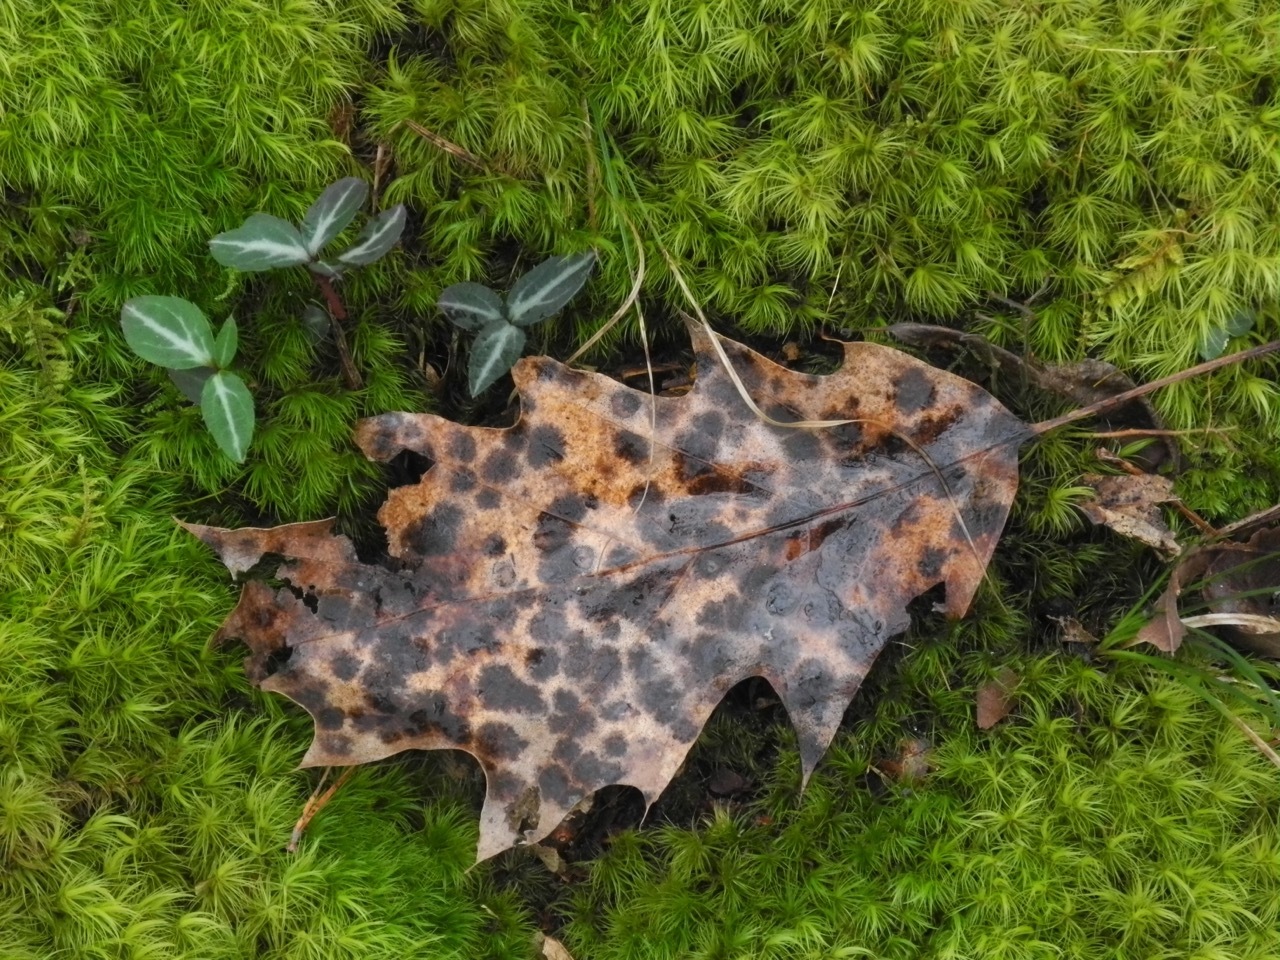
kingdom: Plantae
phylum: Tracheophyta
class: Magnoliopsida
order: Ericales
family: Ericaceae
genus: Chimaphila
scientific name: Chimaphila maculata
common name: Spotted pipsissewa
